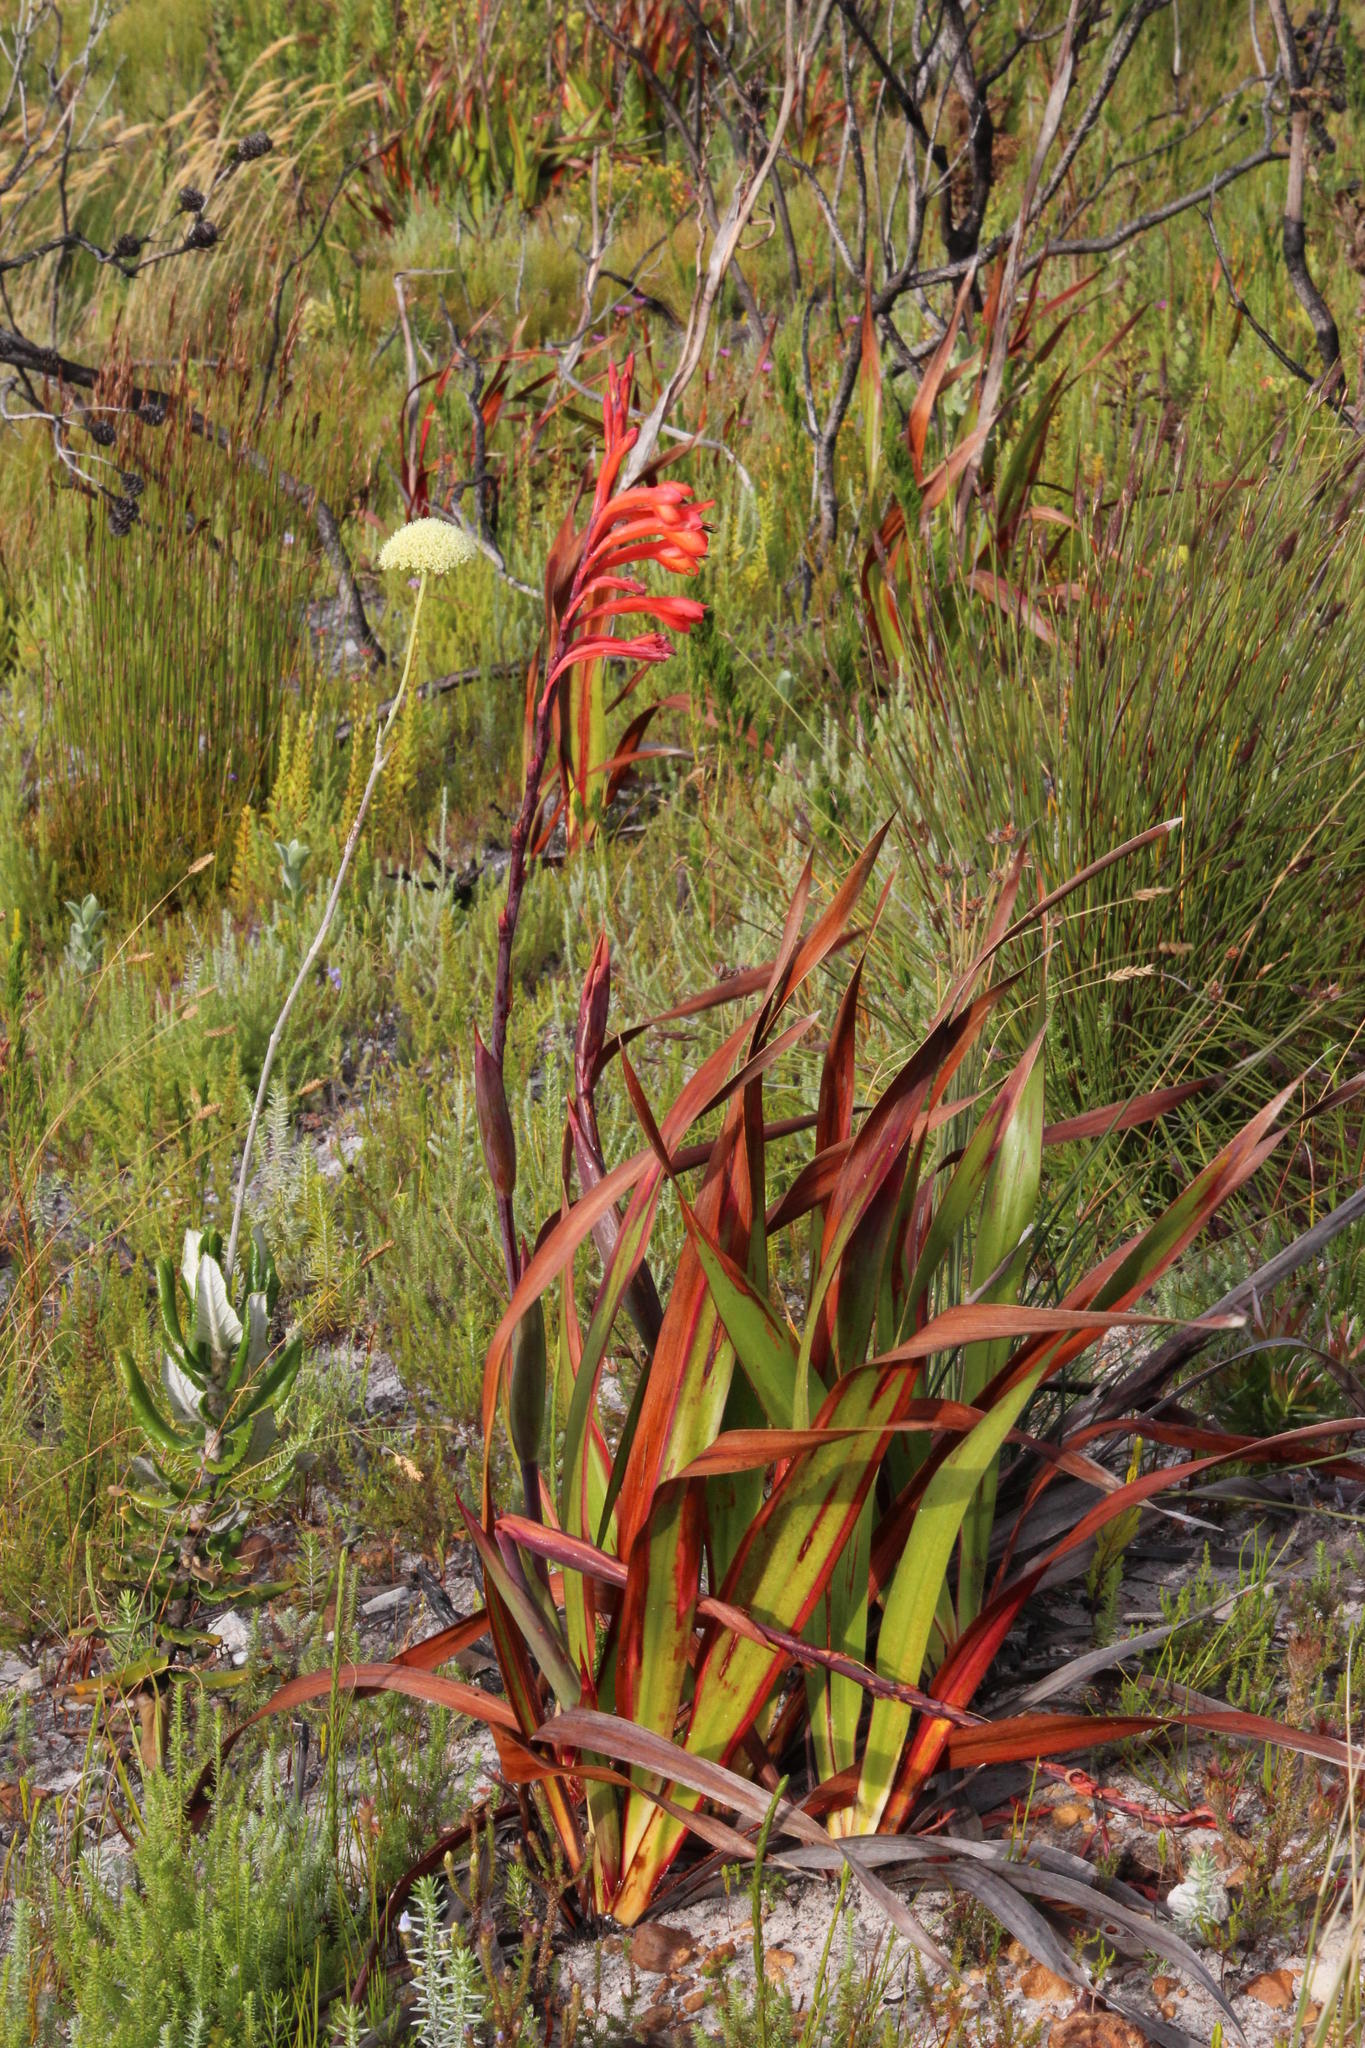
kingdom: Plantae
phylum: Tracheophyta
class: Liliopsida
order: Asparagales
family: Iridaceae
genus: Watsonia
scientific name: Watsonia tabularis
